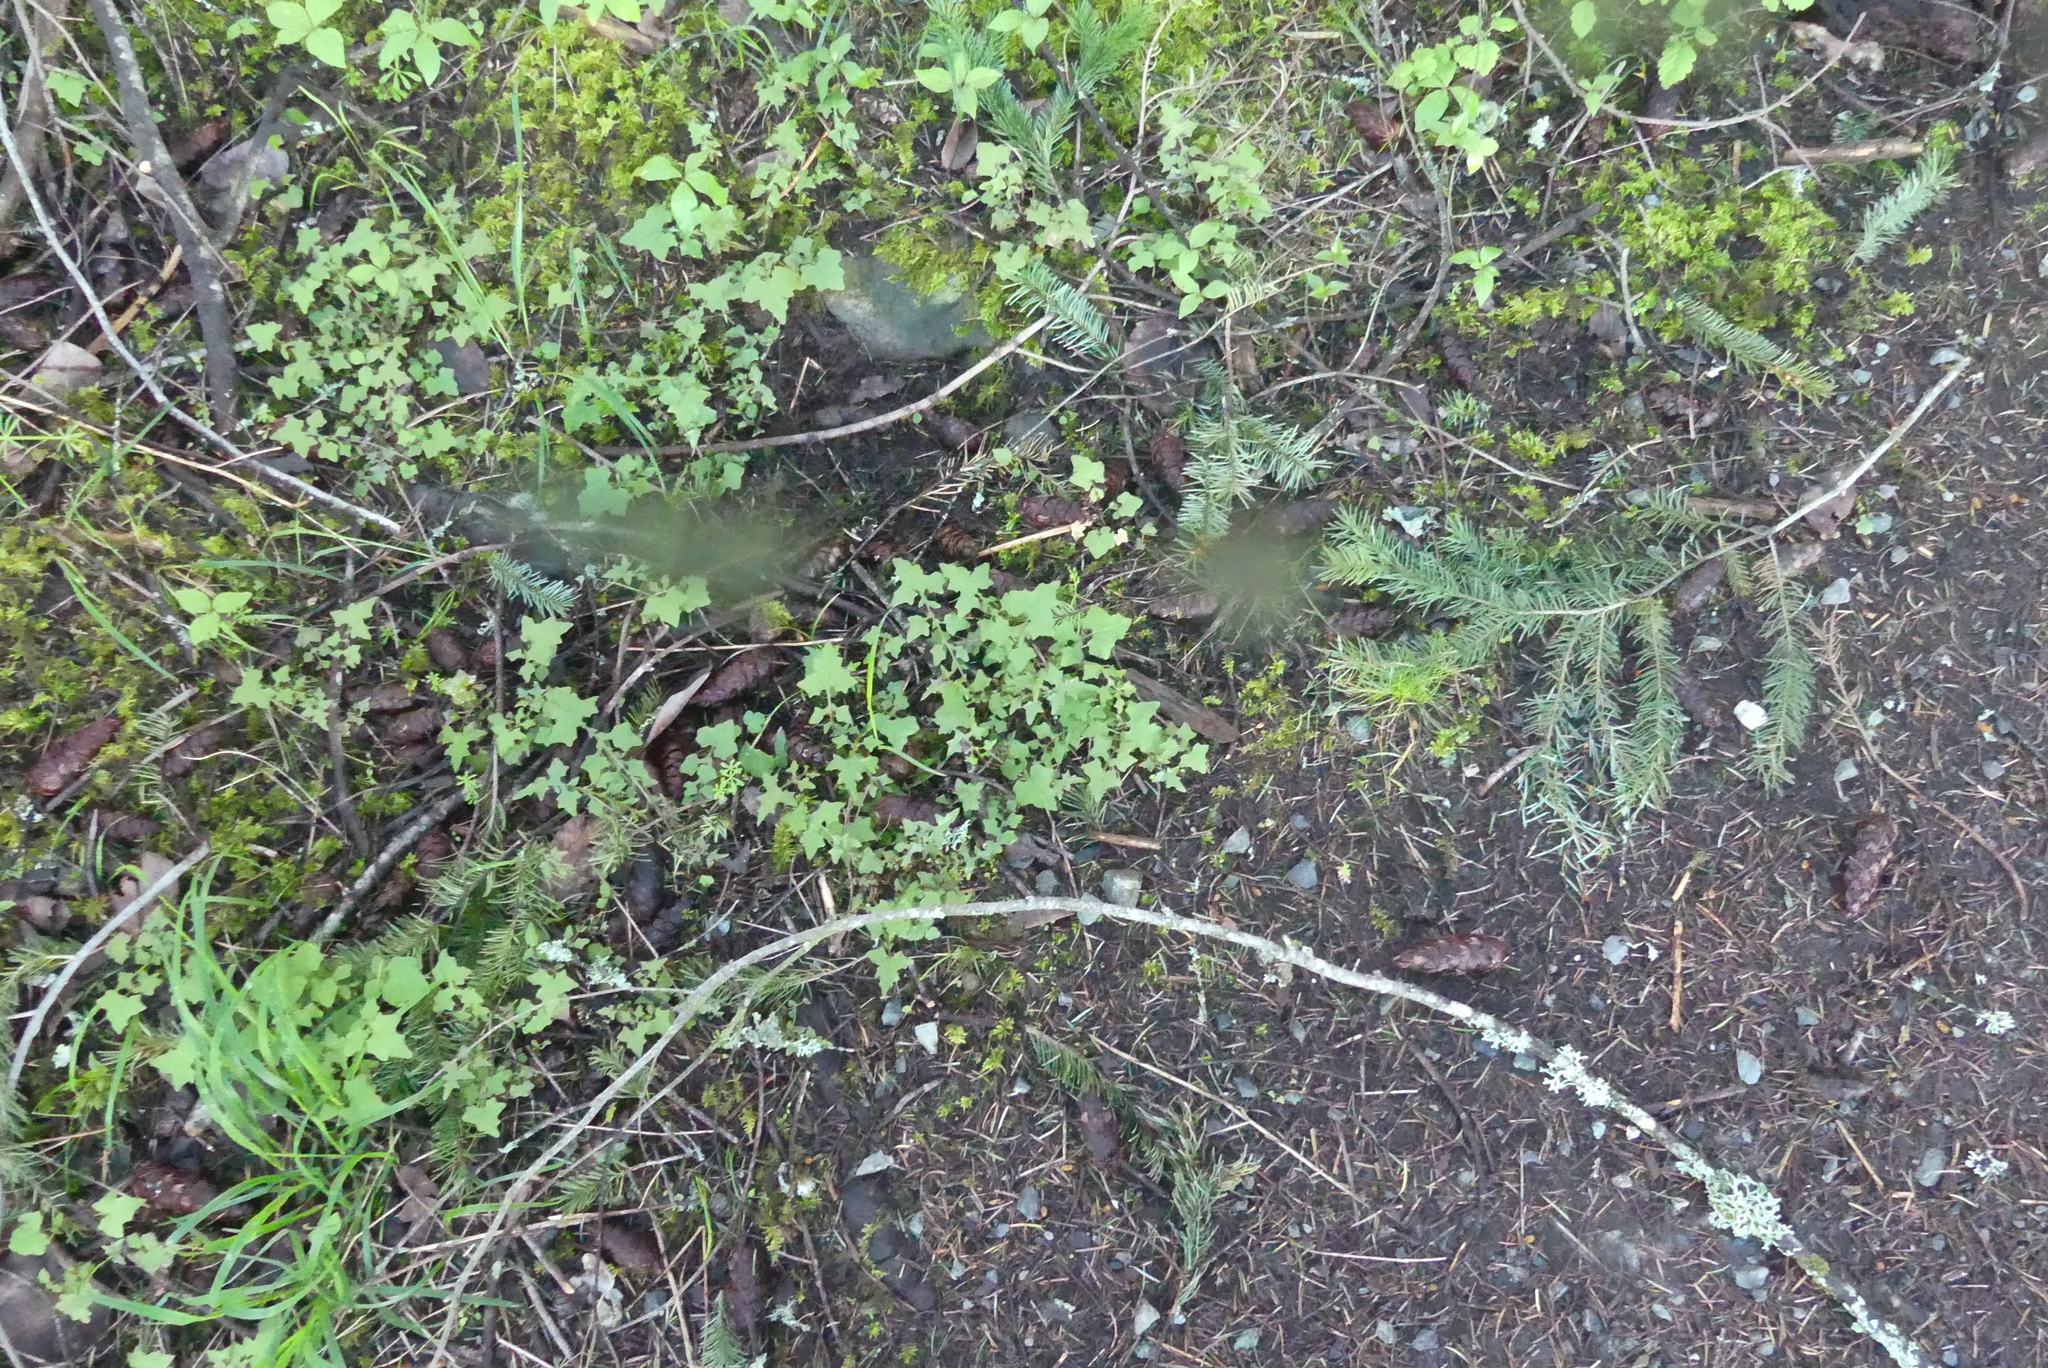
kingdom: Plantae
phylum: Tracheophyta
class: Magnoliopsida
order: Asterales
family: Asteraceae
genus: Mycelis
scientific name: Mycelis muralis
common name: Wall lettuce
